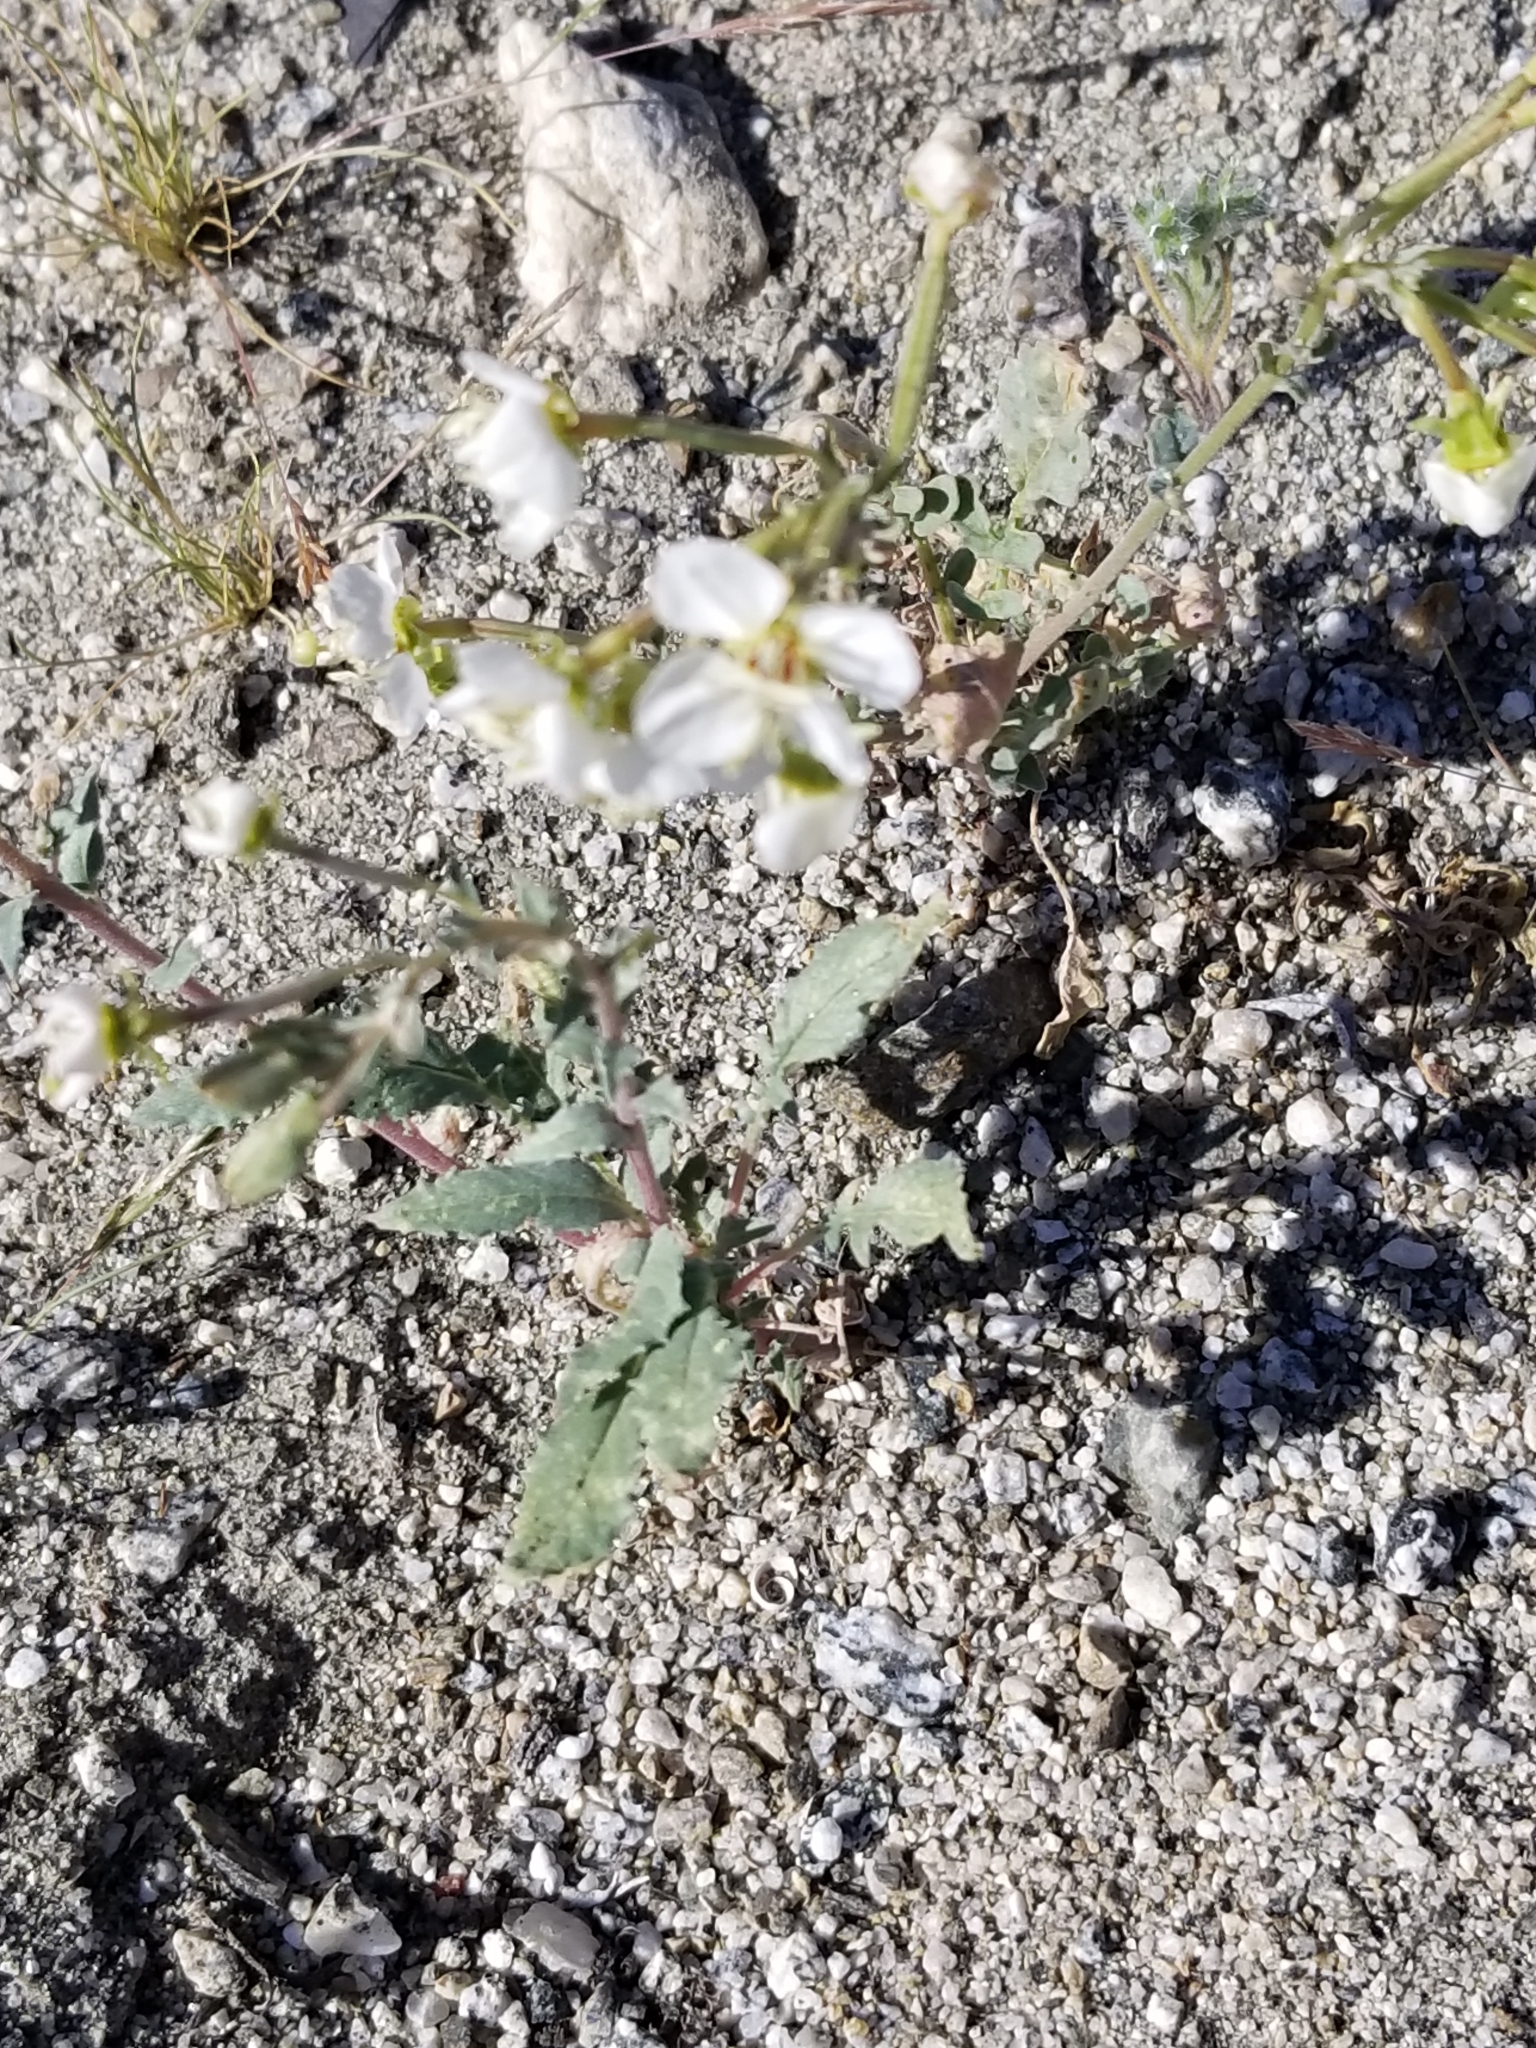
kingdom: Plantae
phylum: Tracheophyta
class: Magnoliopsida
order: Myrtales
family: Onagraceae
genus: Chylismia
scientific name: Chylismia claviformis
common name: Browneyes
